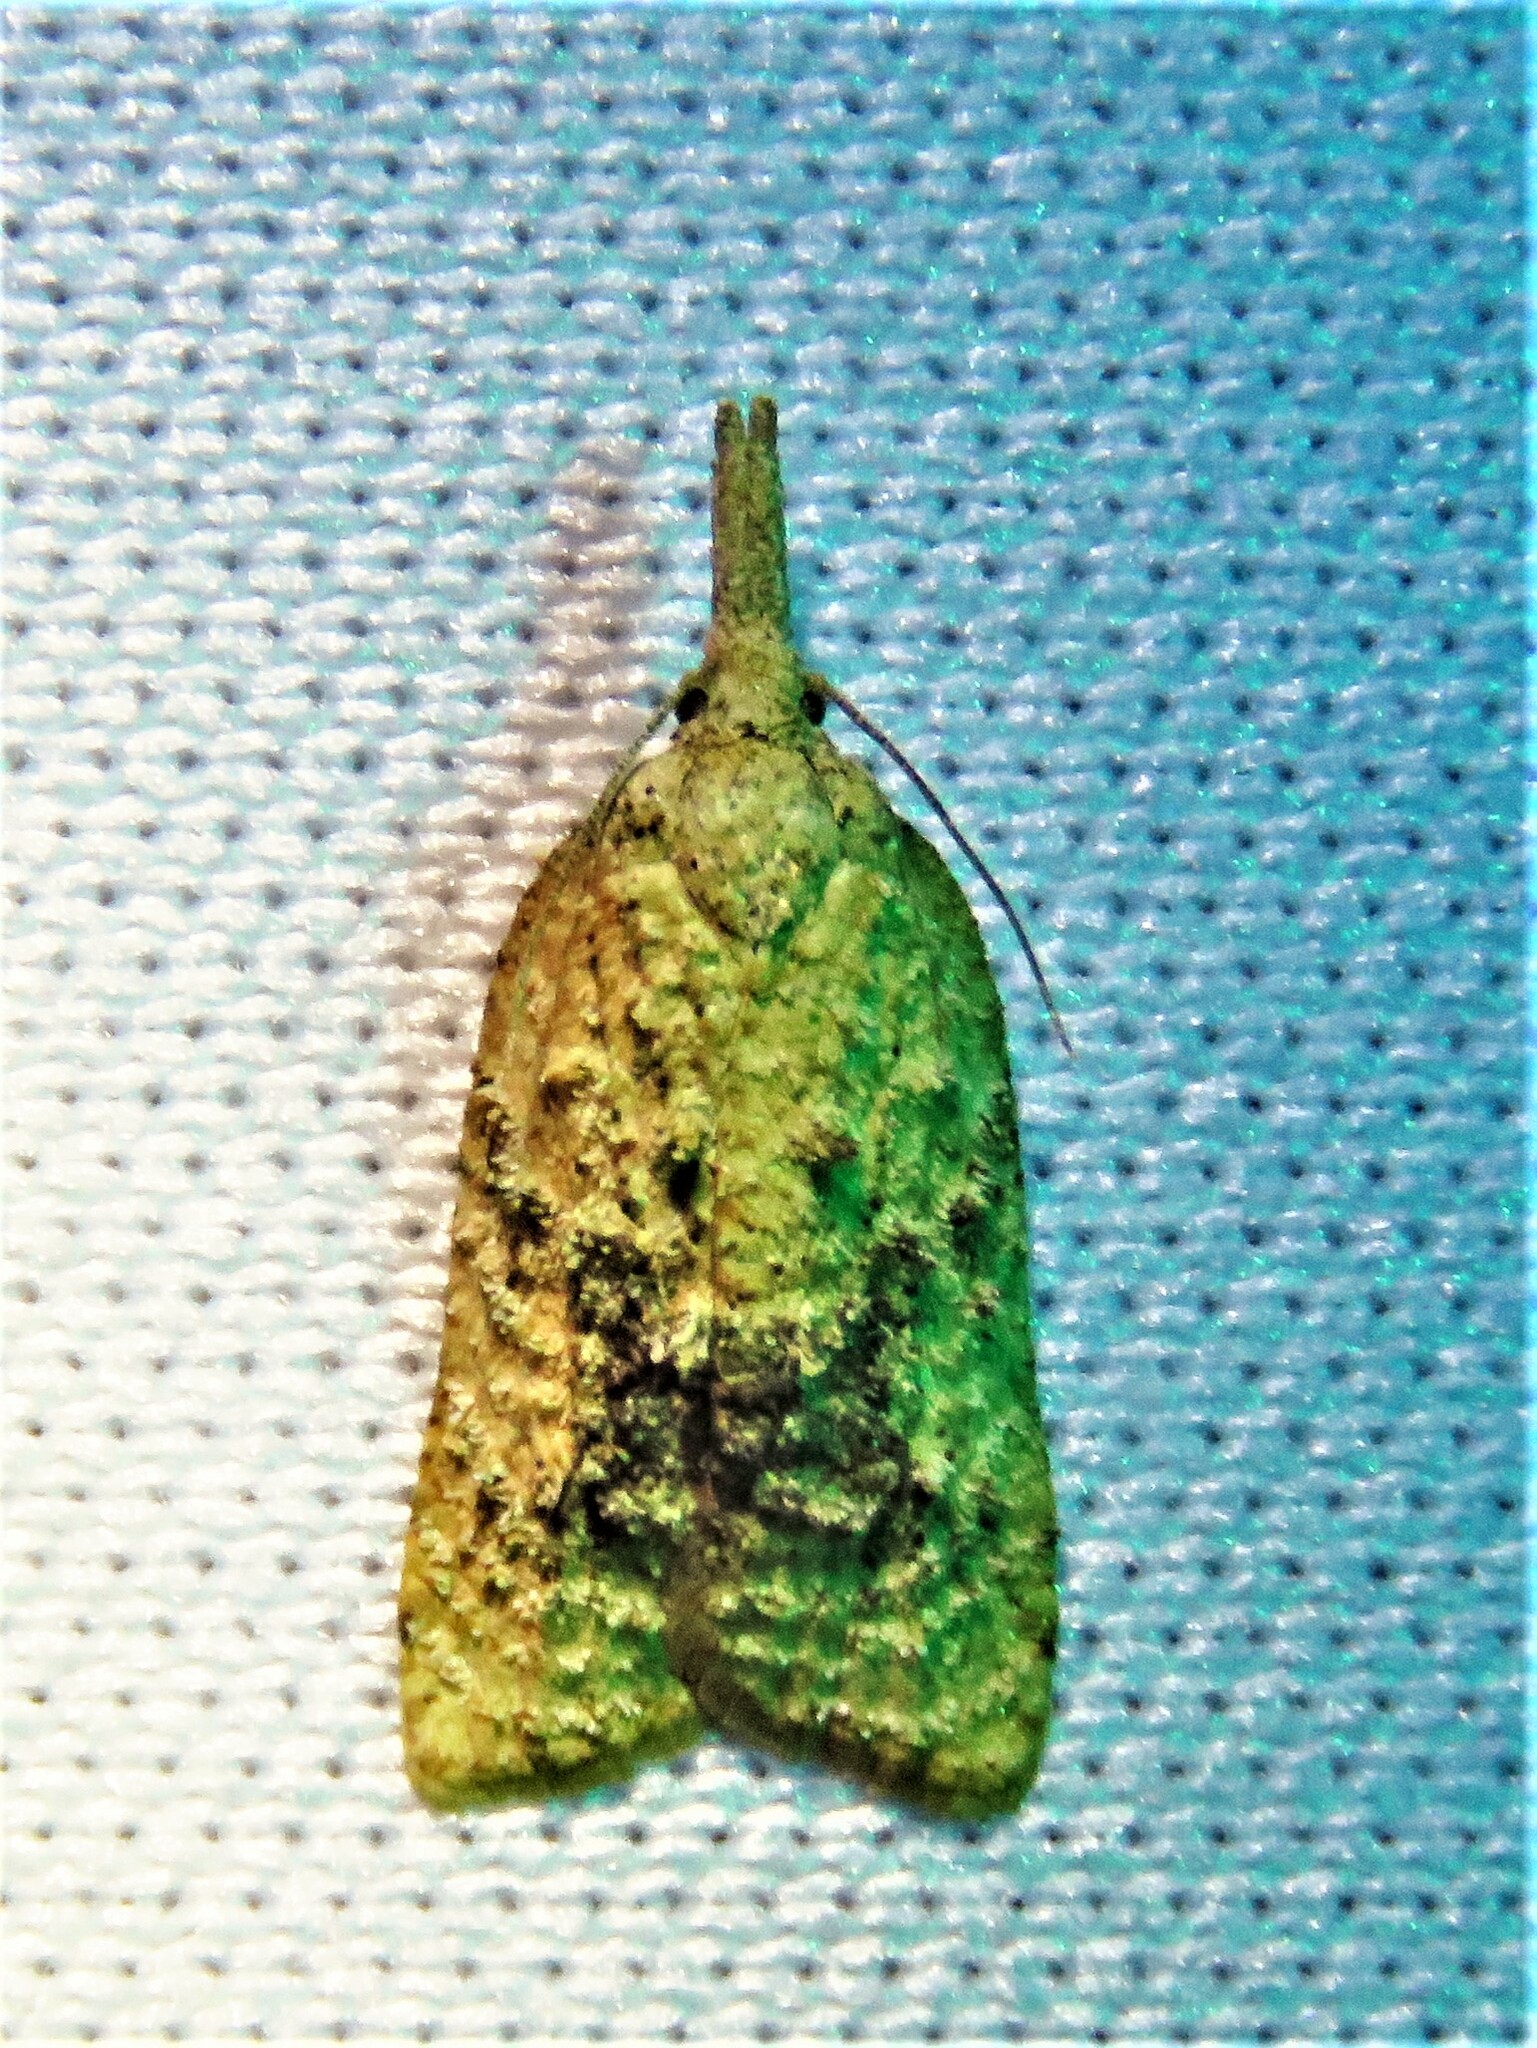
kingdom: Animalia
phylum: Arthropoda
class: Insecta
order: Lepidoptera
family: Tortricidae
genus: Platynota
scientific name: Platynota flavedana
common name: Black-shaded platynota moth
